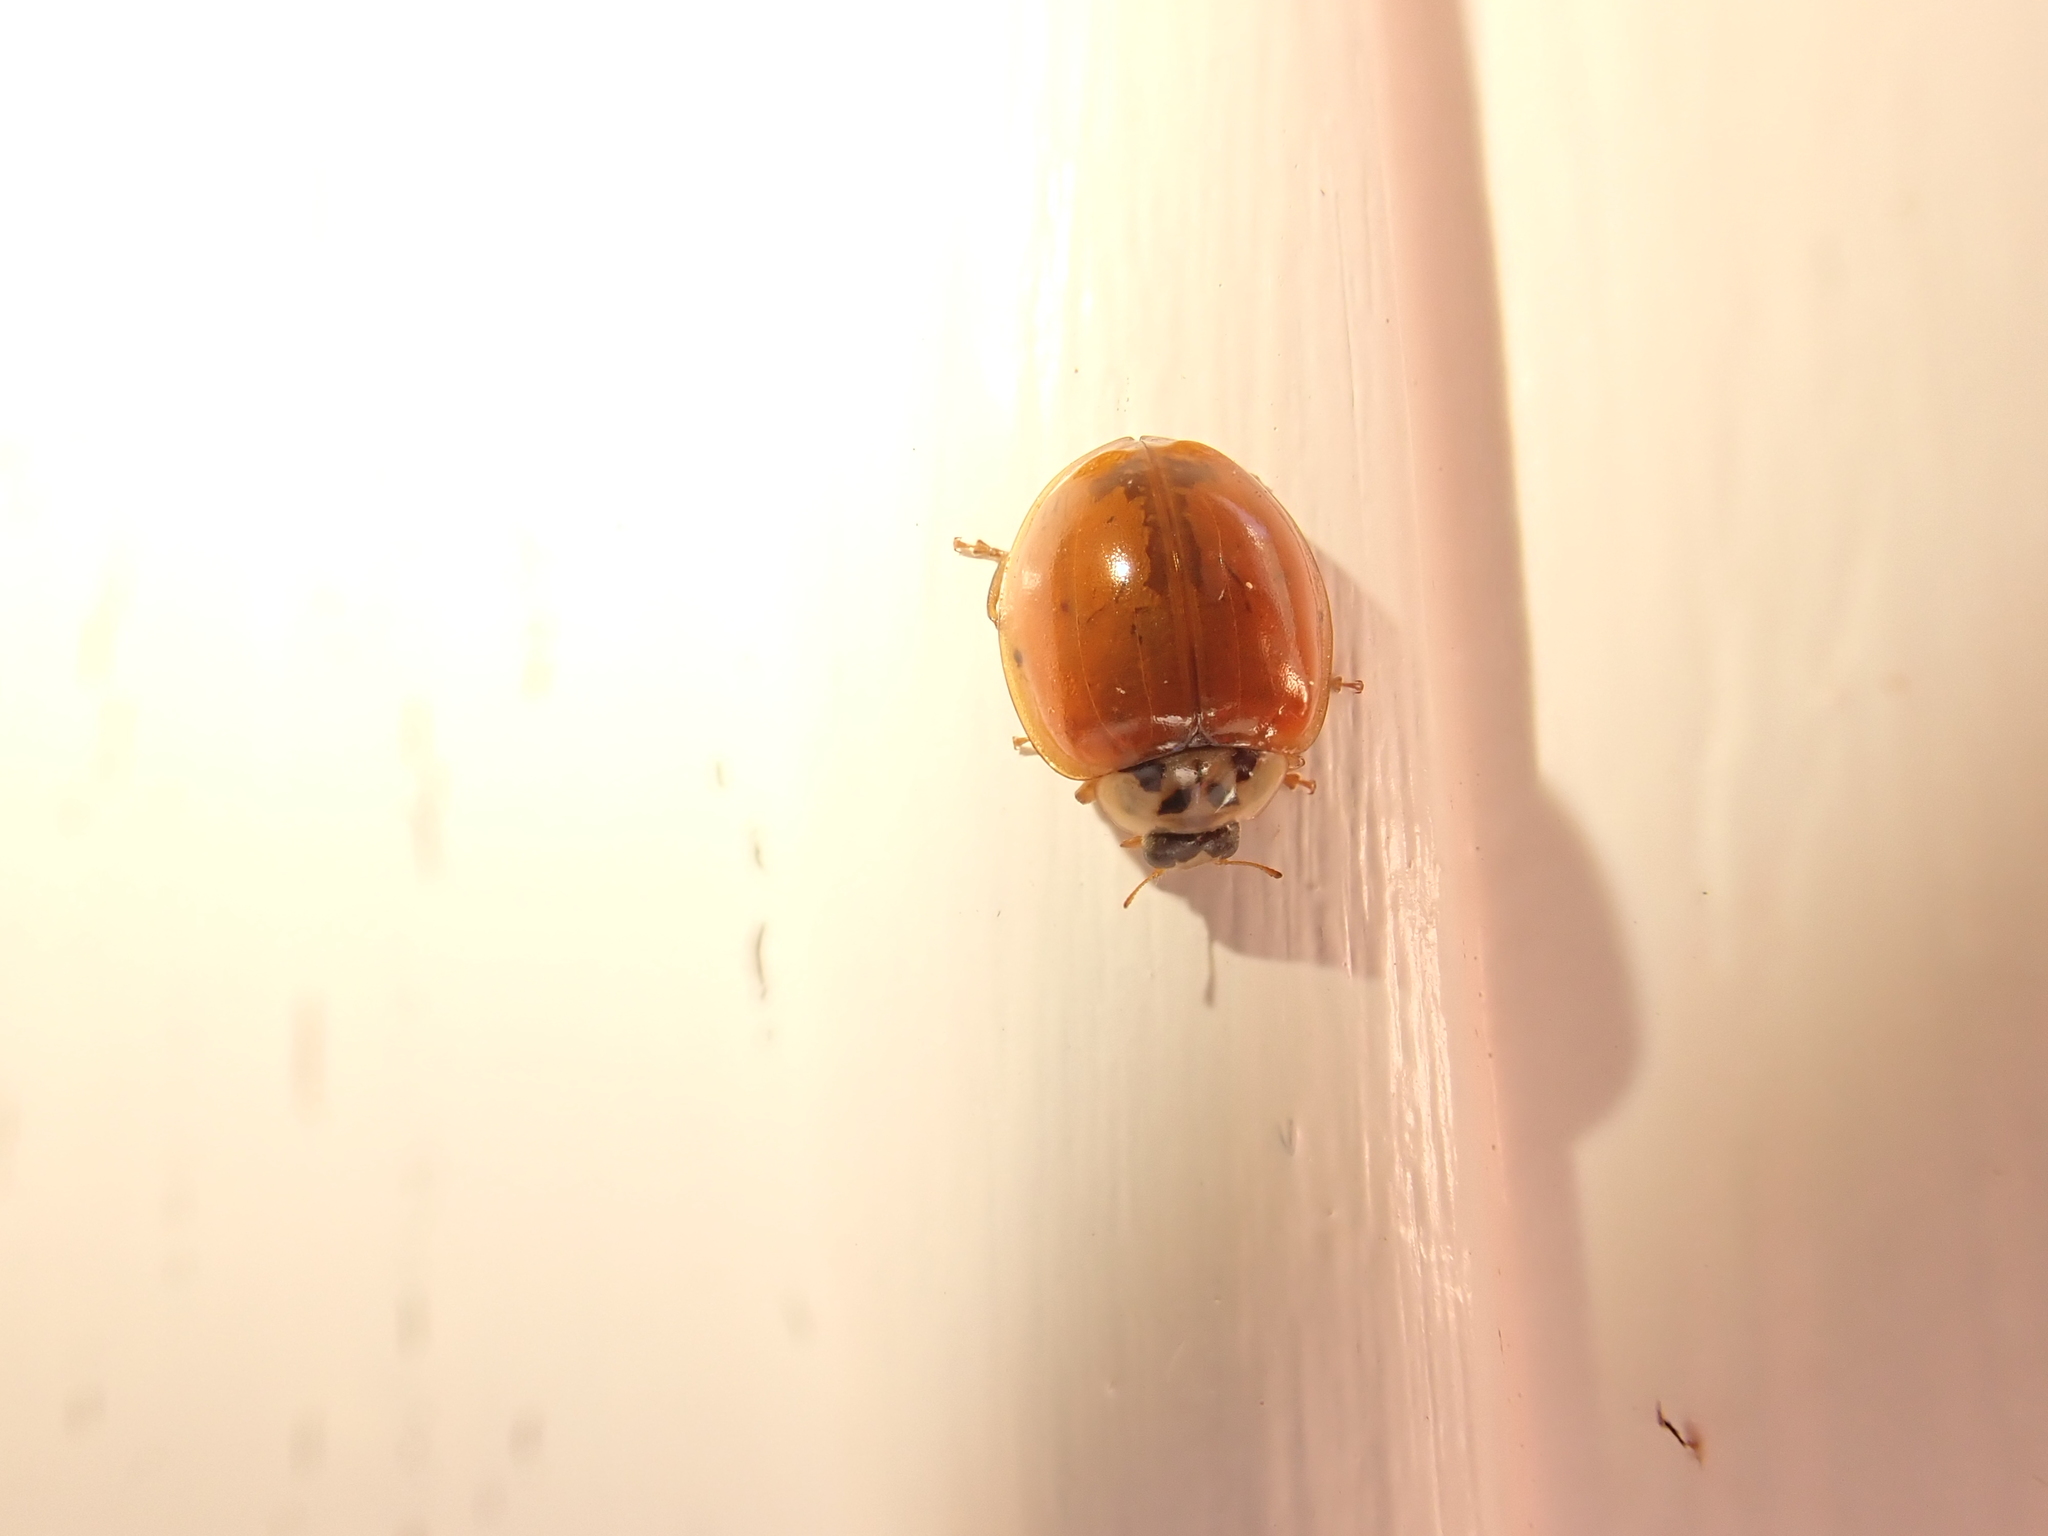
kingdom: Animalia
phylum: Arthropoda
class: Insecta
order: Coleoptera
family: Coccinellidae
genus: Harmonia
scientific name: Harmonia axyridis
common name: Harlequin ladybird
